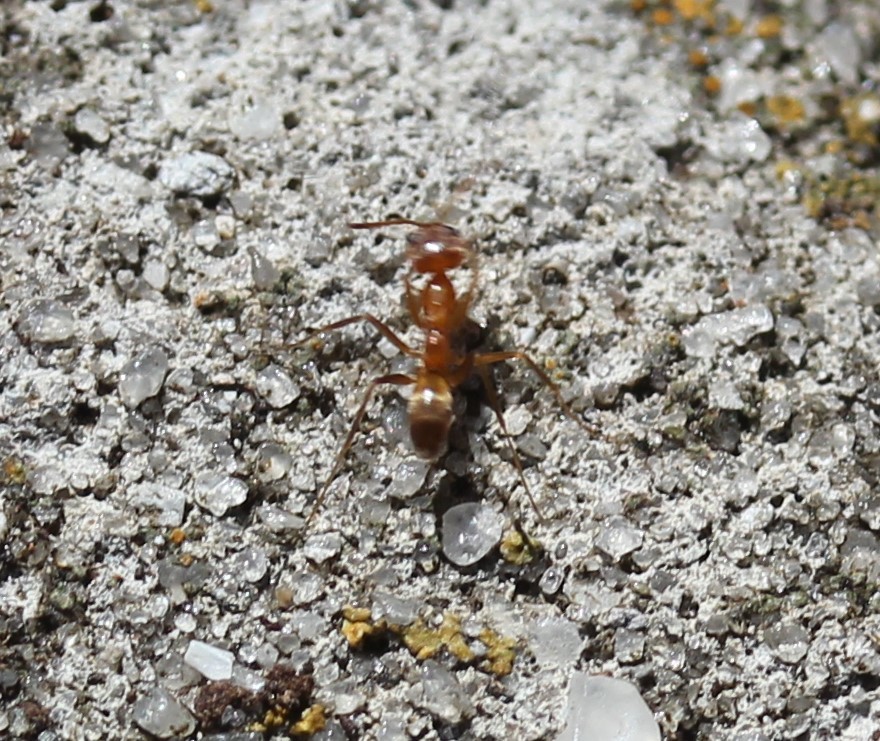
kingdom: Animalia
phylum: Arthropoda
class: Insecta
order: Hymenoptera
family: Formicidae
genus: Dorymyrmex
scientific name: Dorymyrmex bureni
